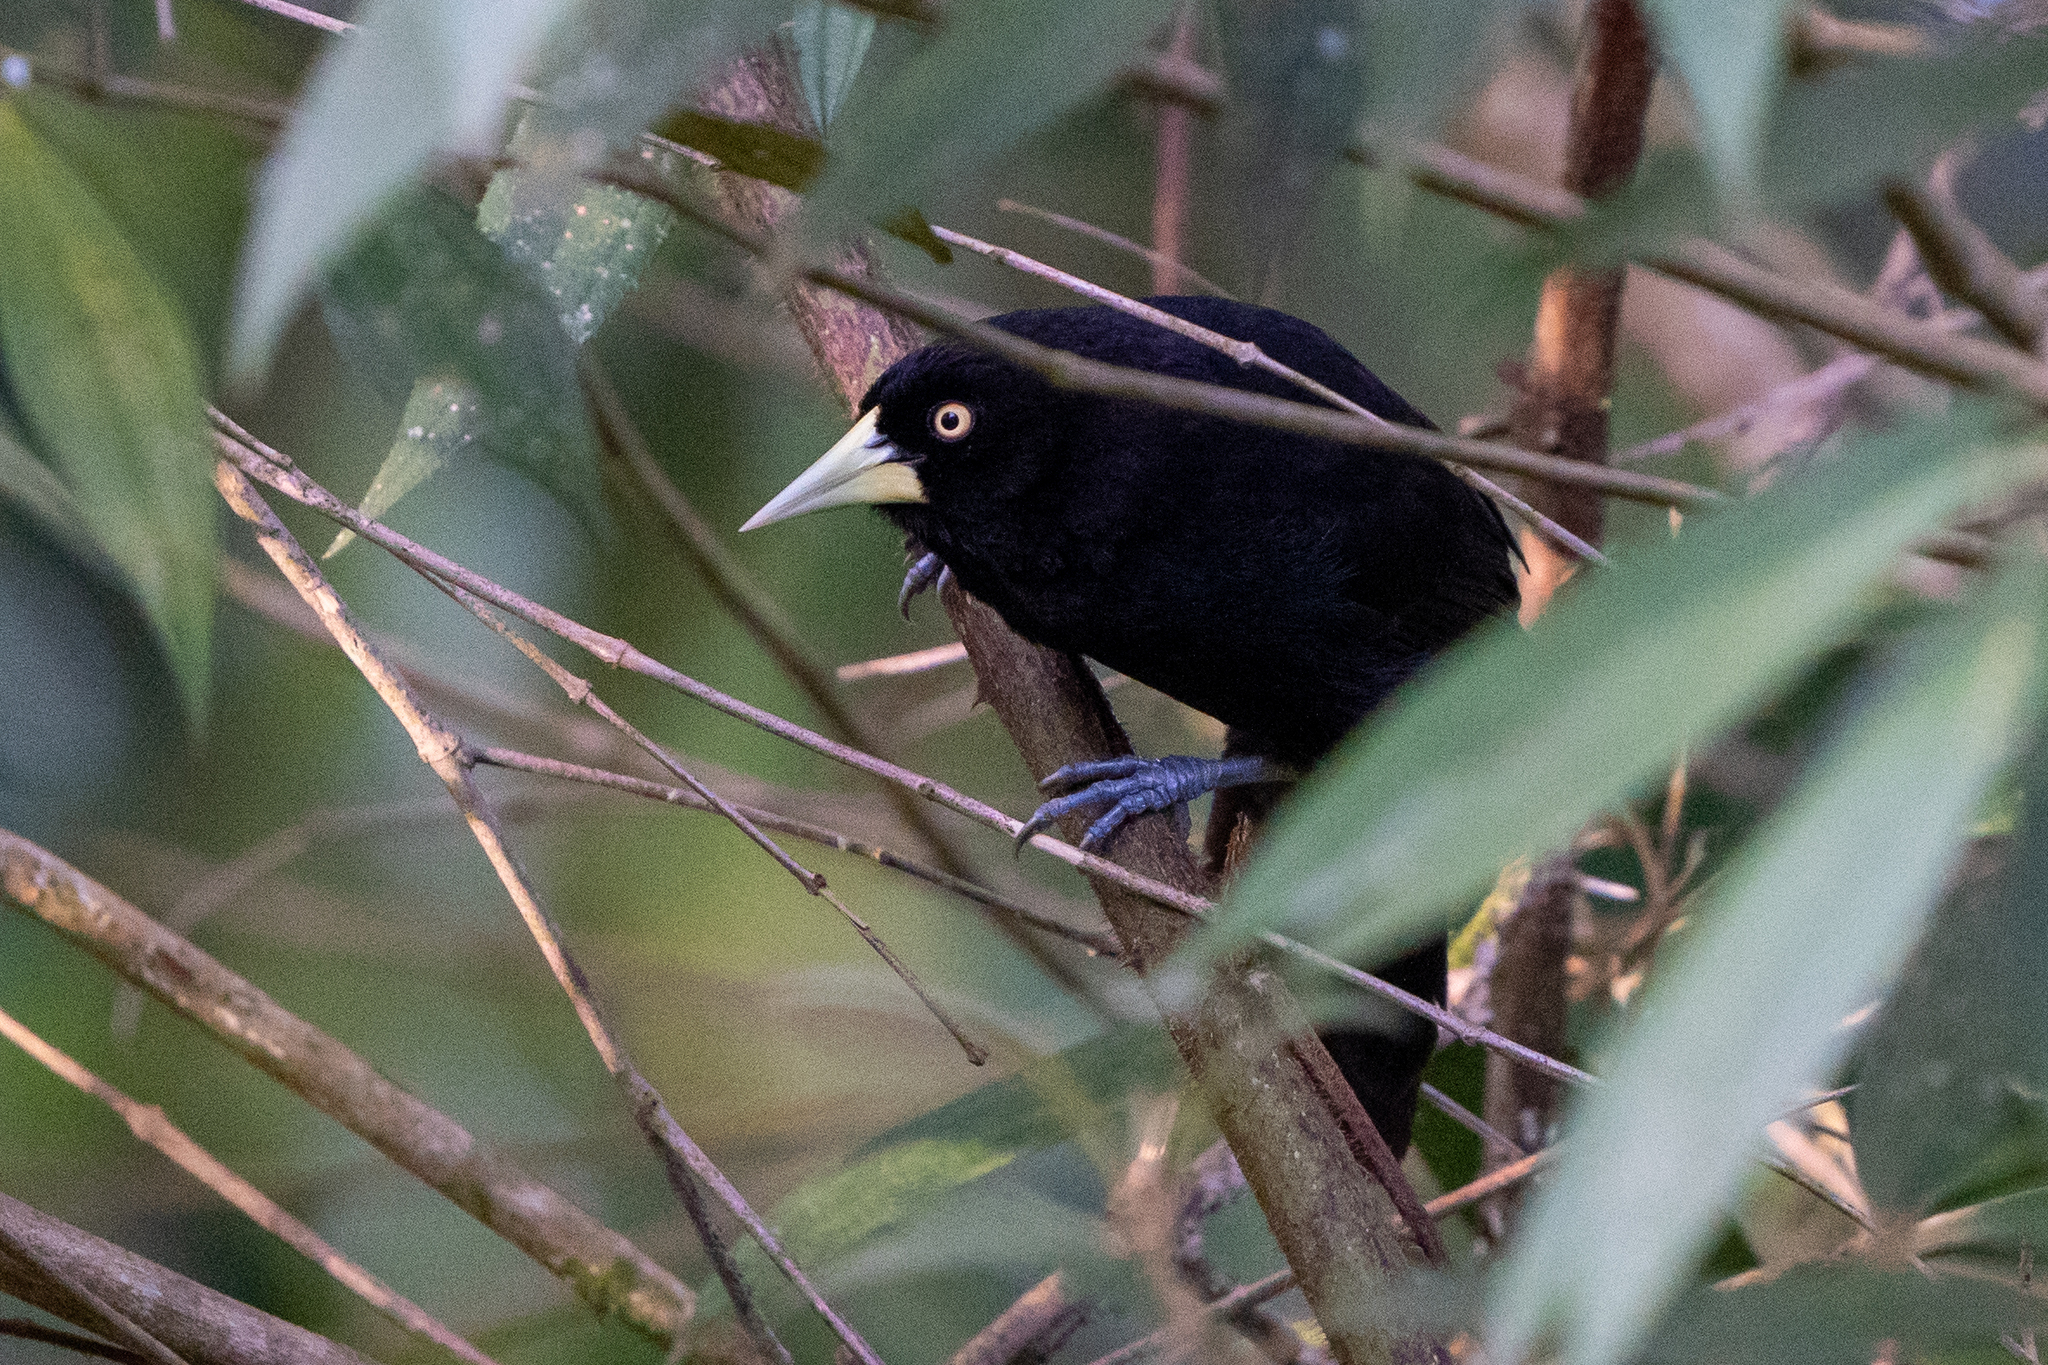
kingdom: Animalia
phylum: Chordata
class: Aves
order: Passeriformes
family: Icteridae
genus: Amblycercus
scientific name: Amblycercus holosericeus
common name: Yellow-billed cacique
